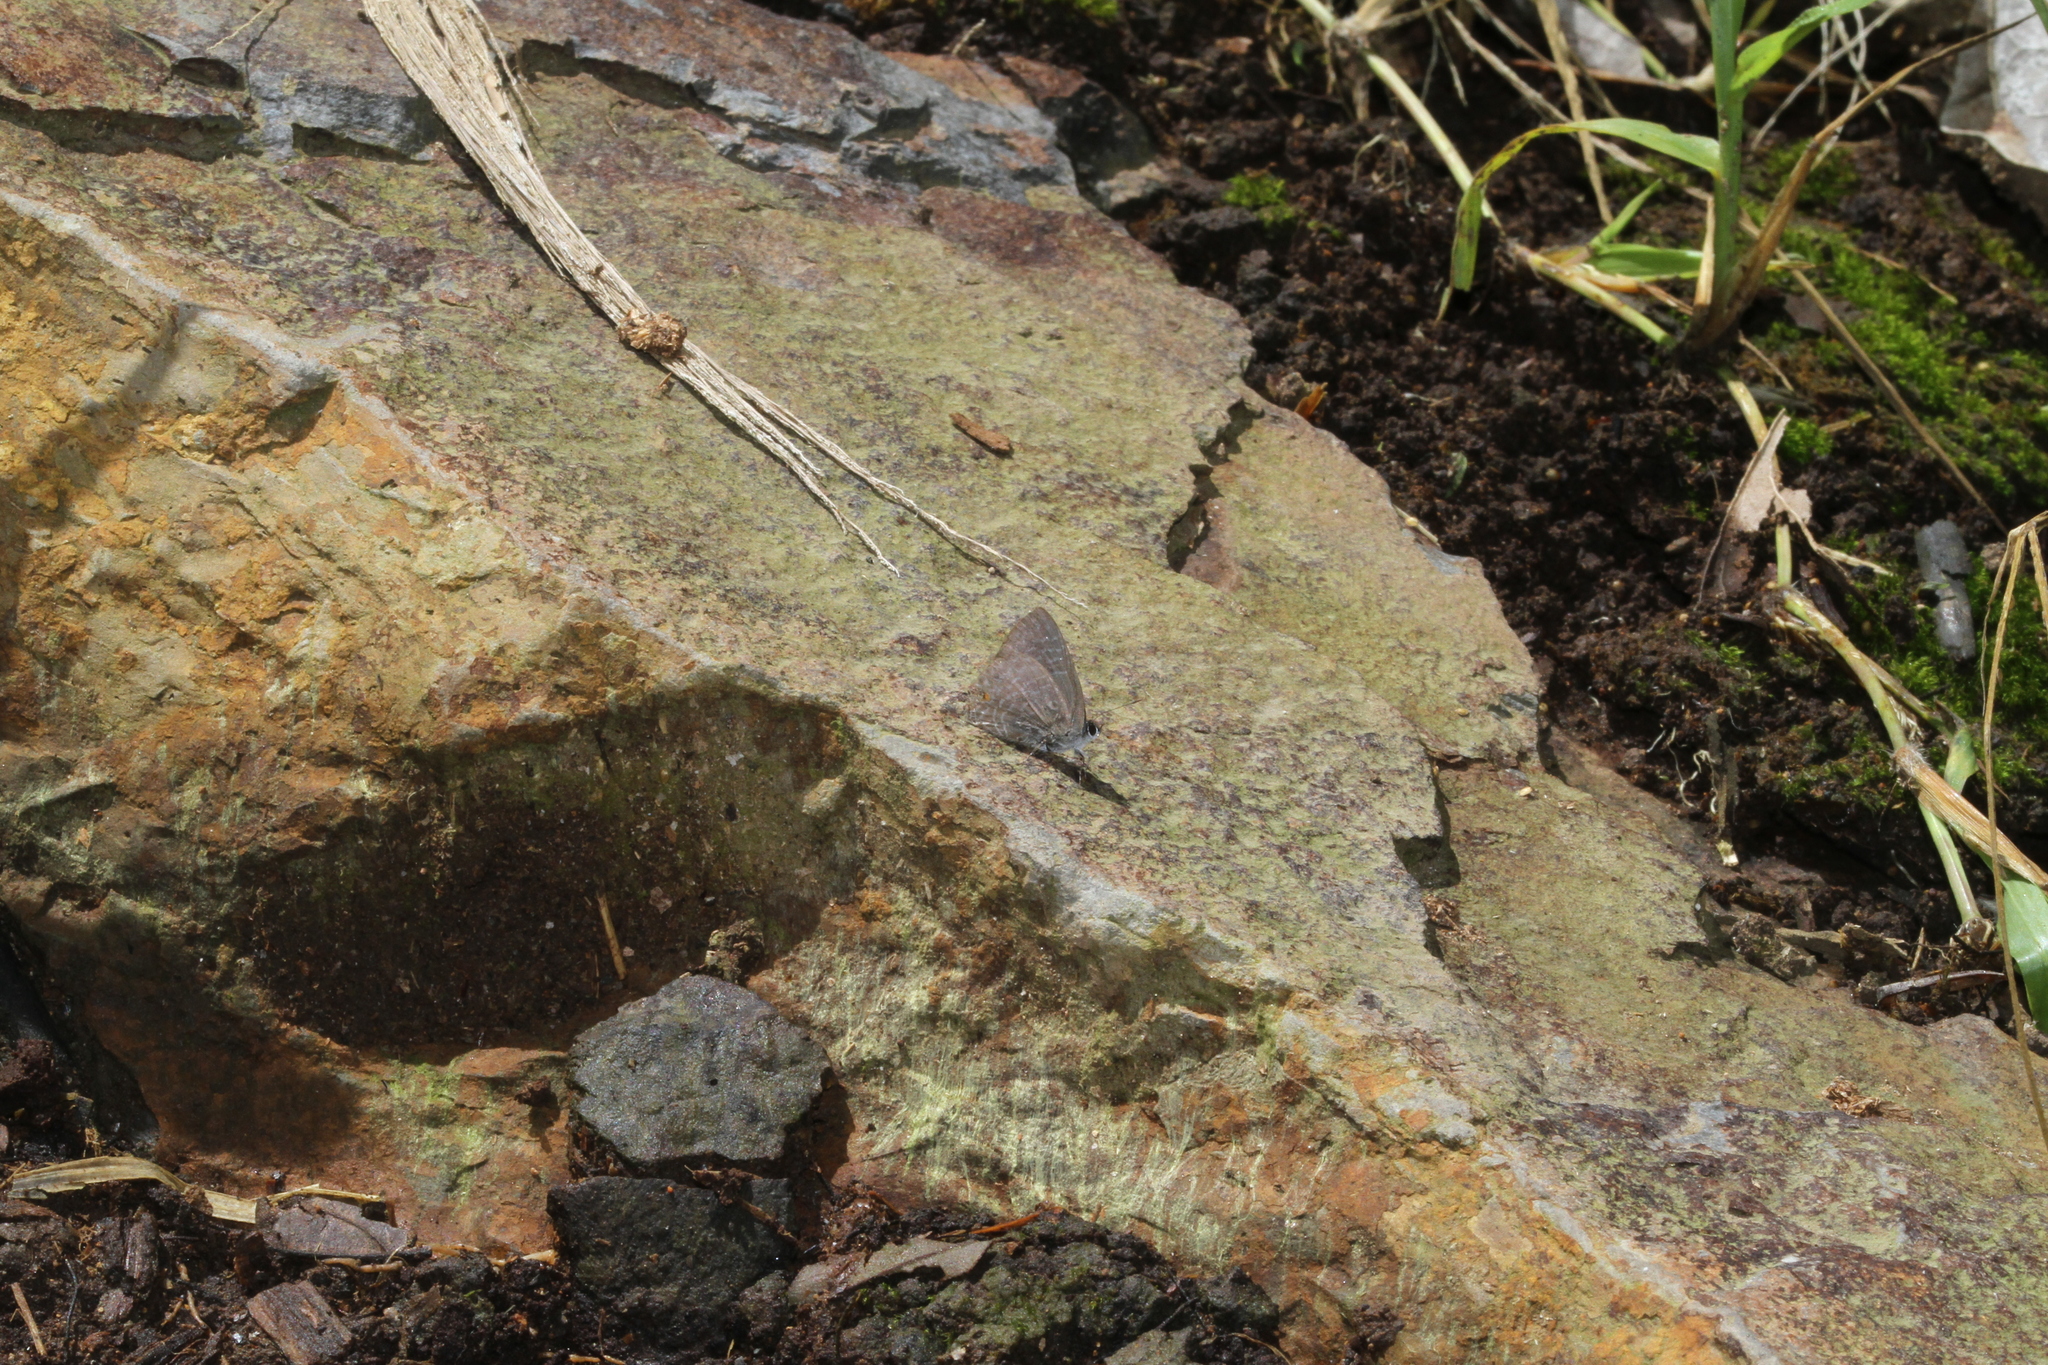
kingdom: Animalia
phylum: Arthropoda
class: Insecta
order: Lepidoptera
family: Lycaenidae
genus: Anthene
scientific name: Anthene lycaenina
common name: Pointed ciliate blue
